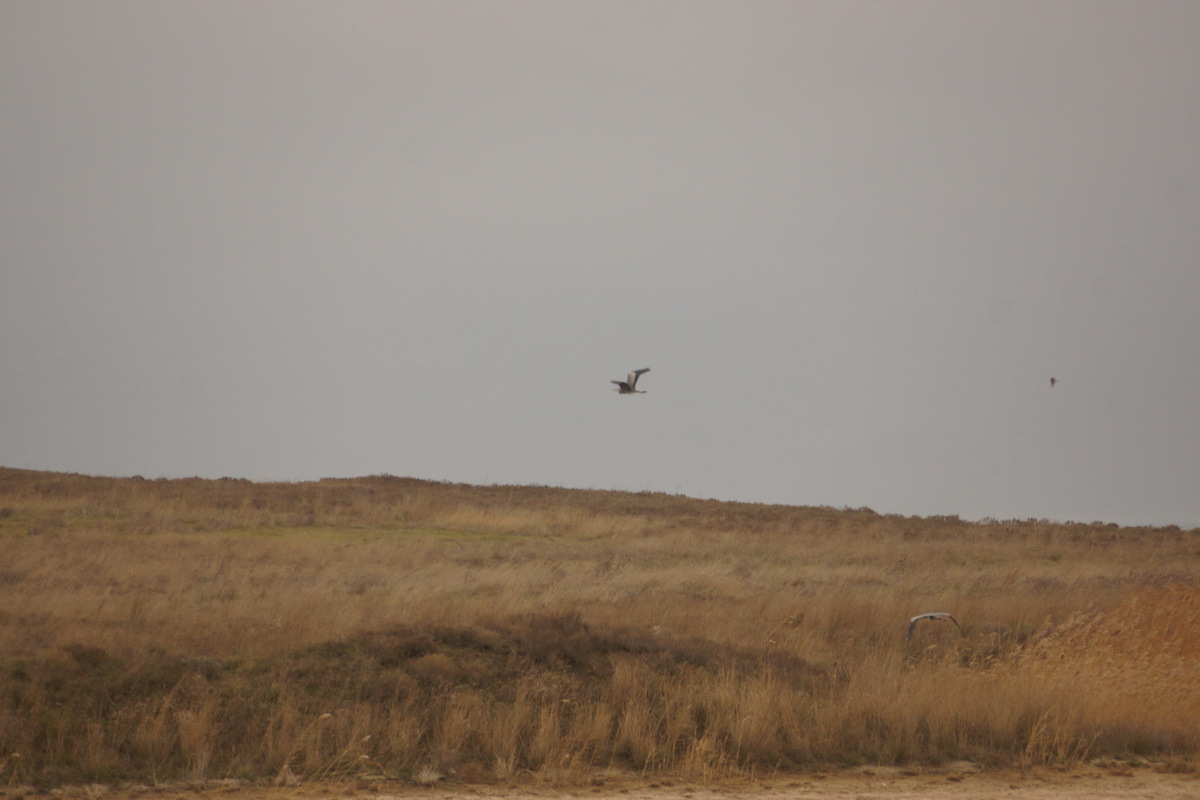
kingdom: Animalia
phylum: Chordata
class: Aves
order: Pelecaniformes
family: Ardeidae
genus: Ardea
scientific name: Ardea cinerea
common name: Grey heron
